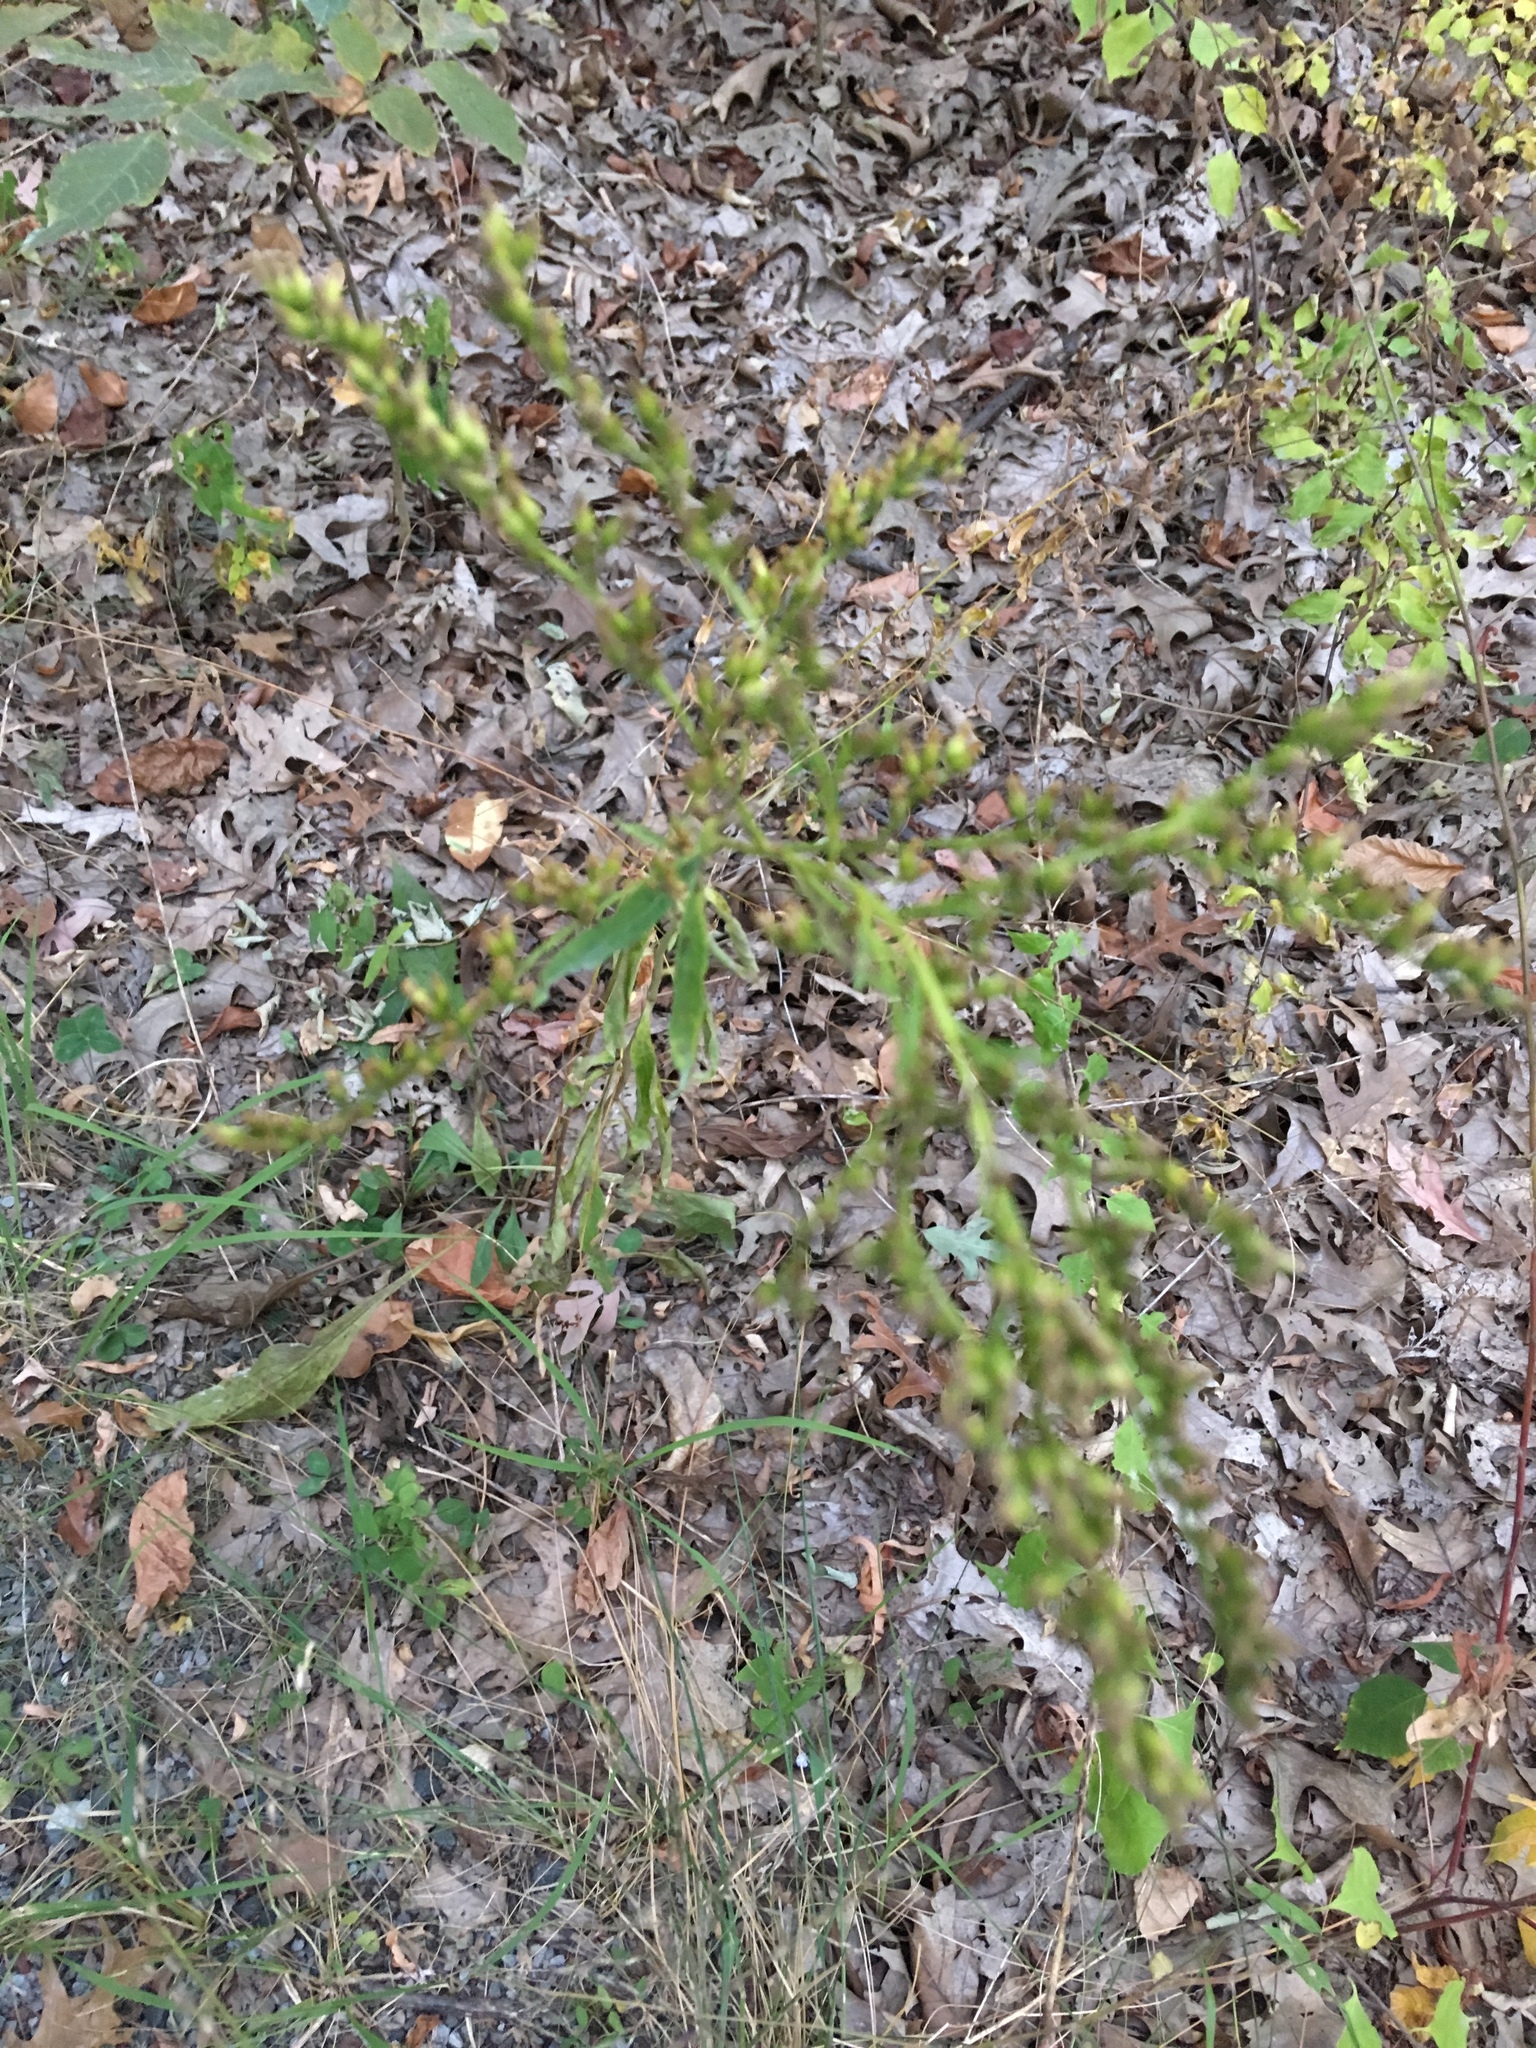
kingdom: Plantae
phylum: Tracheophyta
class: Magnoliopsida
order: Asterales
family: Asteraceae
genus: Solidago
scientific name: Solidago juncea
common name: Early goldenrod
